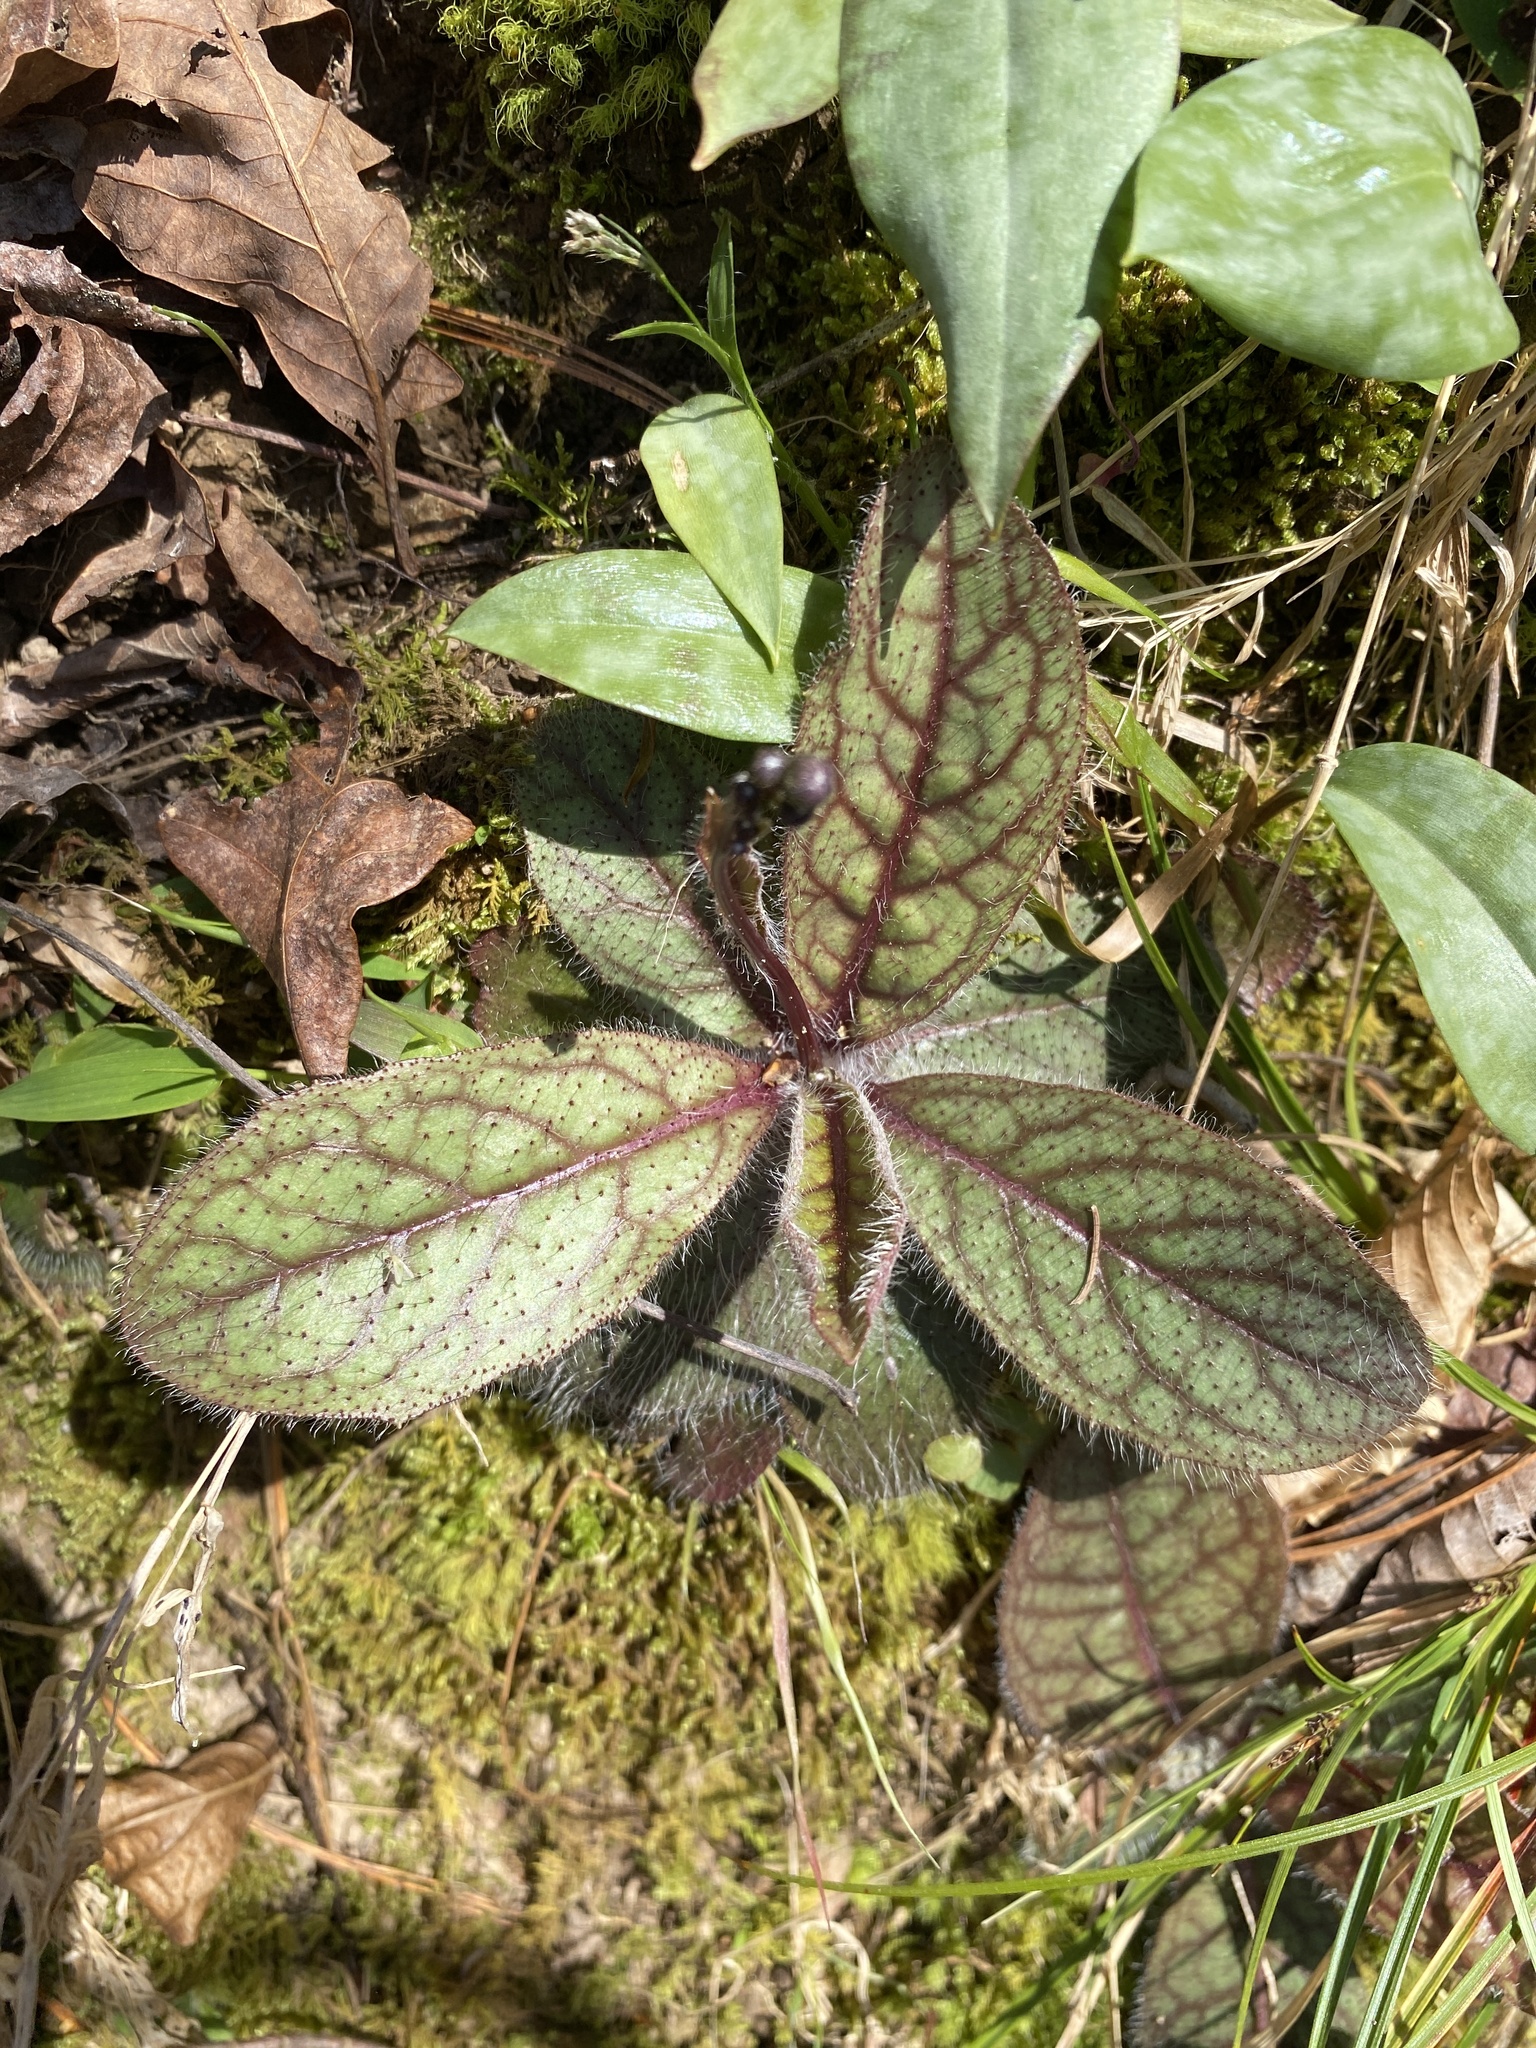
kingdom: Plantae
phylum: Tracheophyta
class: Magnoliopsida
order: Asterales
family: Asteraceae
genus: Hieracium
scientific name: Hieracium venosum
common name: Rattlesnake hawkweed
